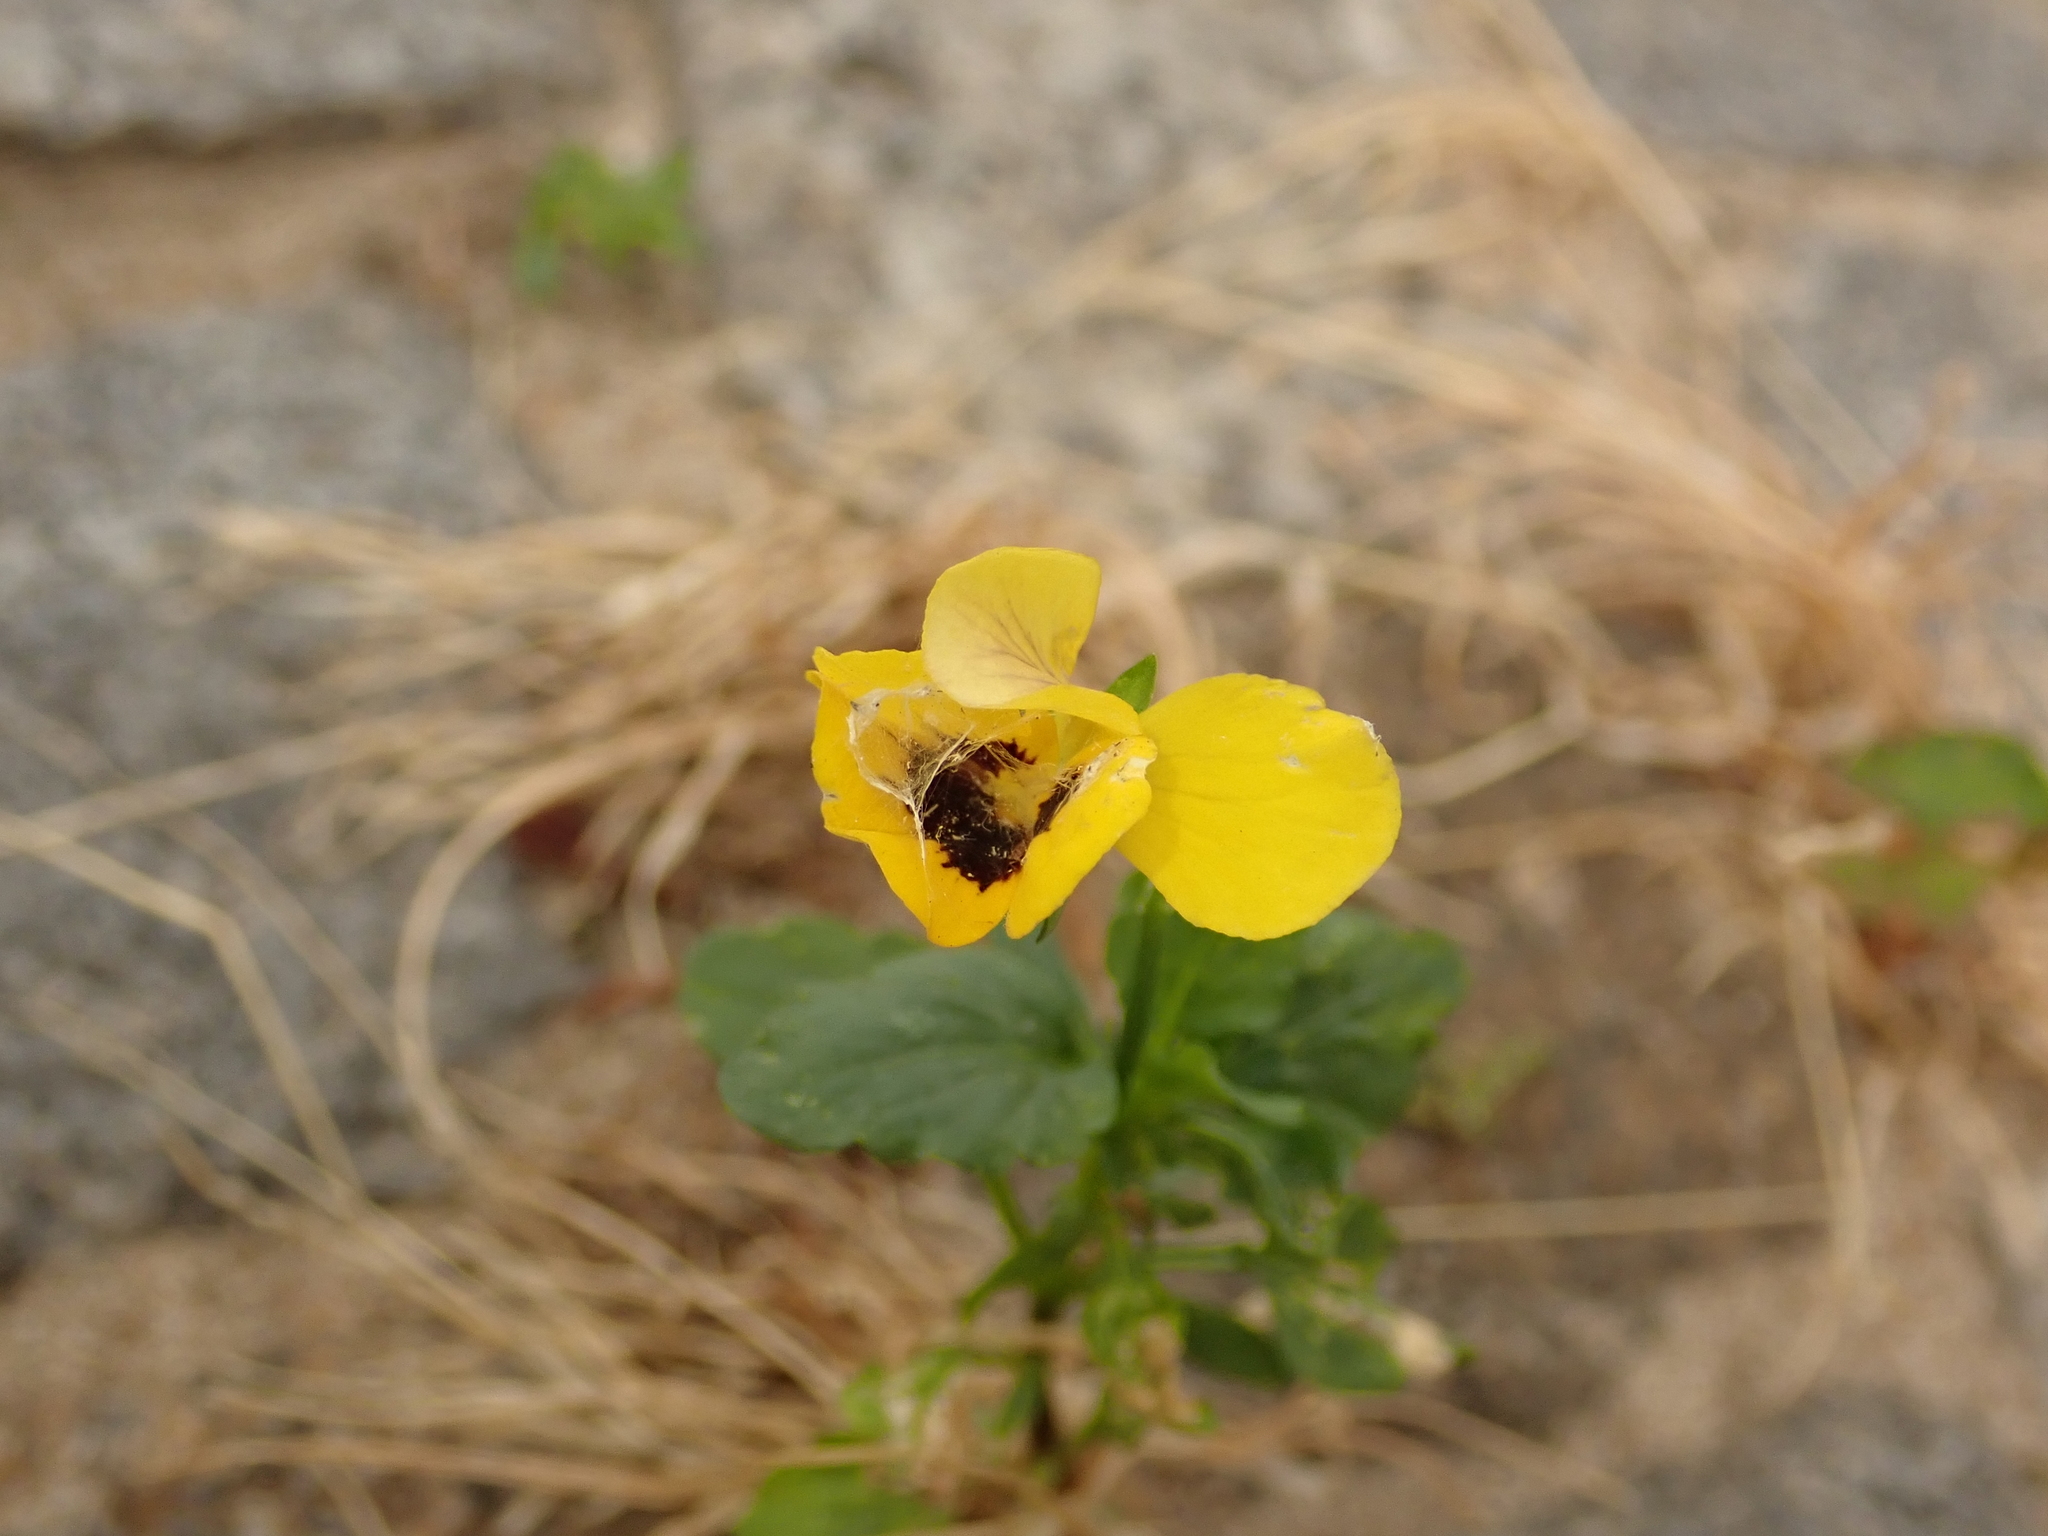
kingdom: Plantae
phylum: Tracheophyta
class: Magnoliopsida
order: Malpighiales
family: Violaceae
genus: Viola
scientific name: Viola wittrockiana
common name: Garden pansy
